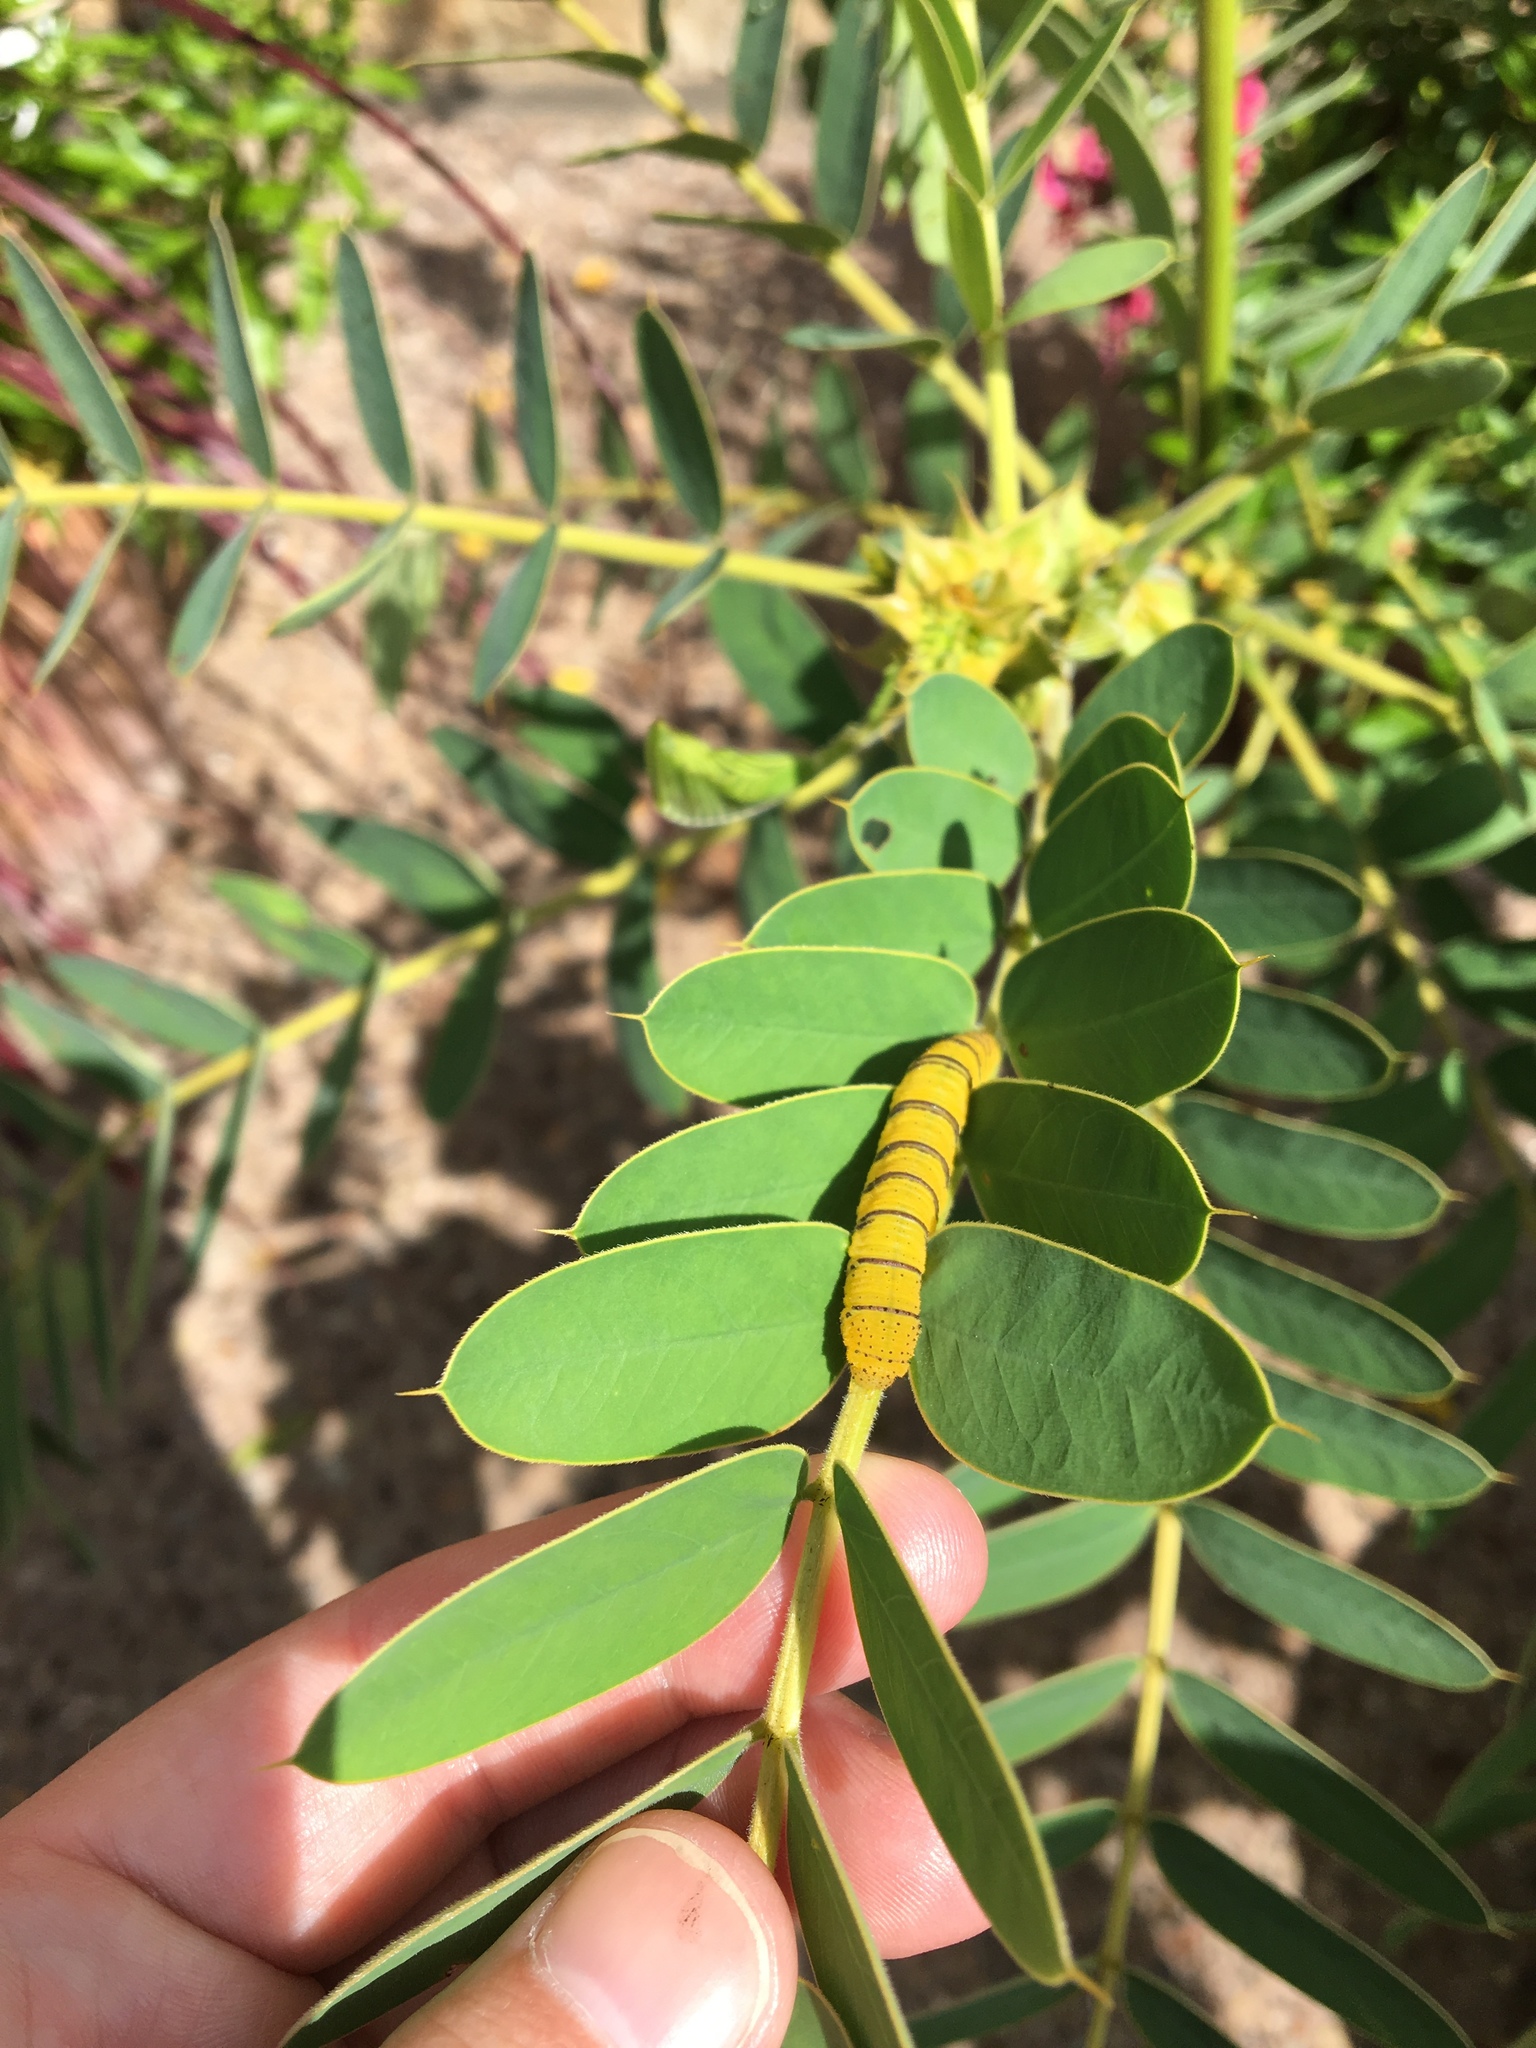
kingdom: Animalia
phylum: Arthropoda
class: Insecta
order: Lepidoptera
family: Pieridae
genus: Phoebis
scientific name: Phoebis sennae
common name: Cloudless sulphur
